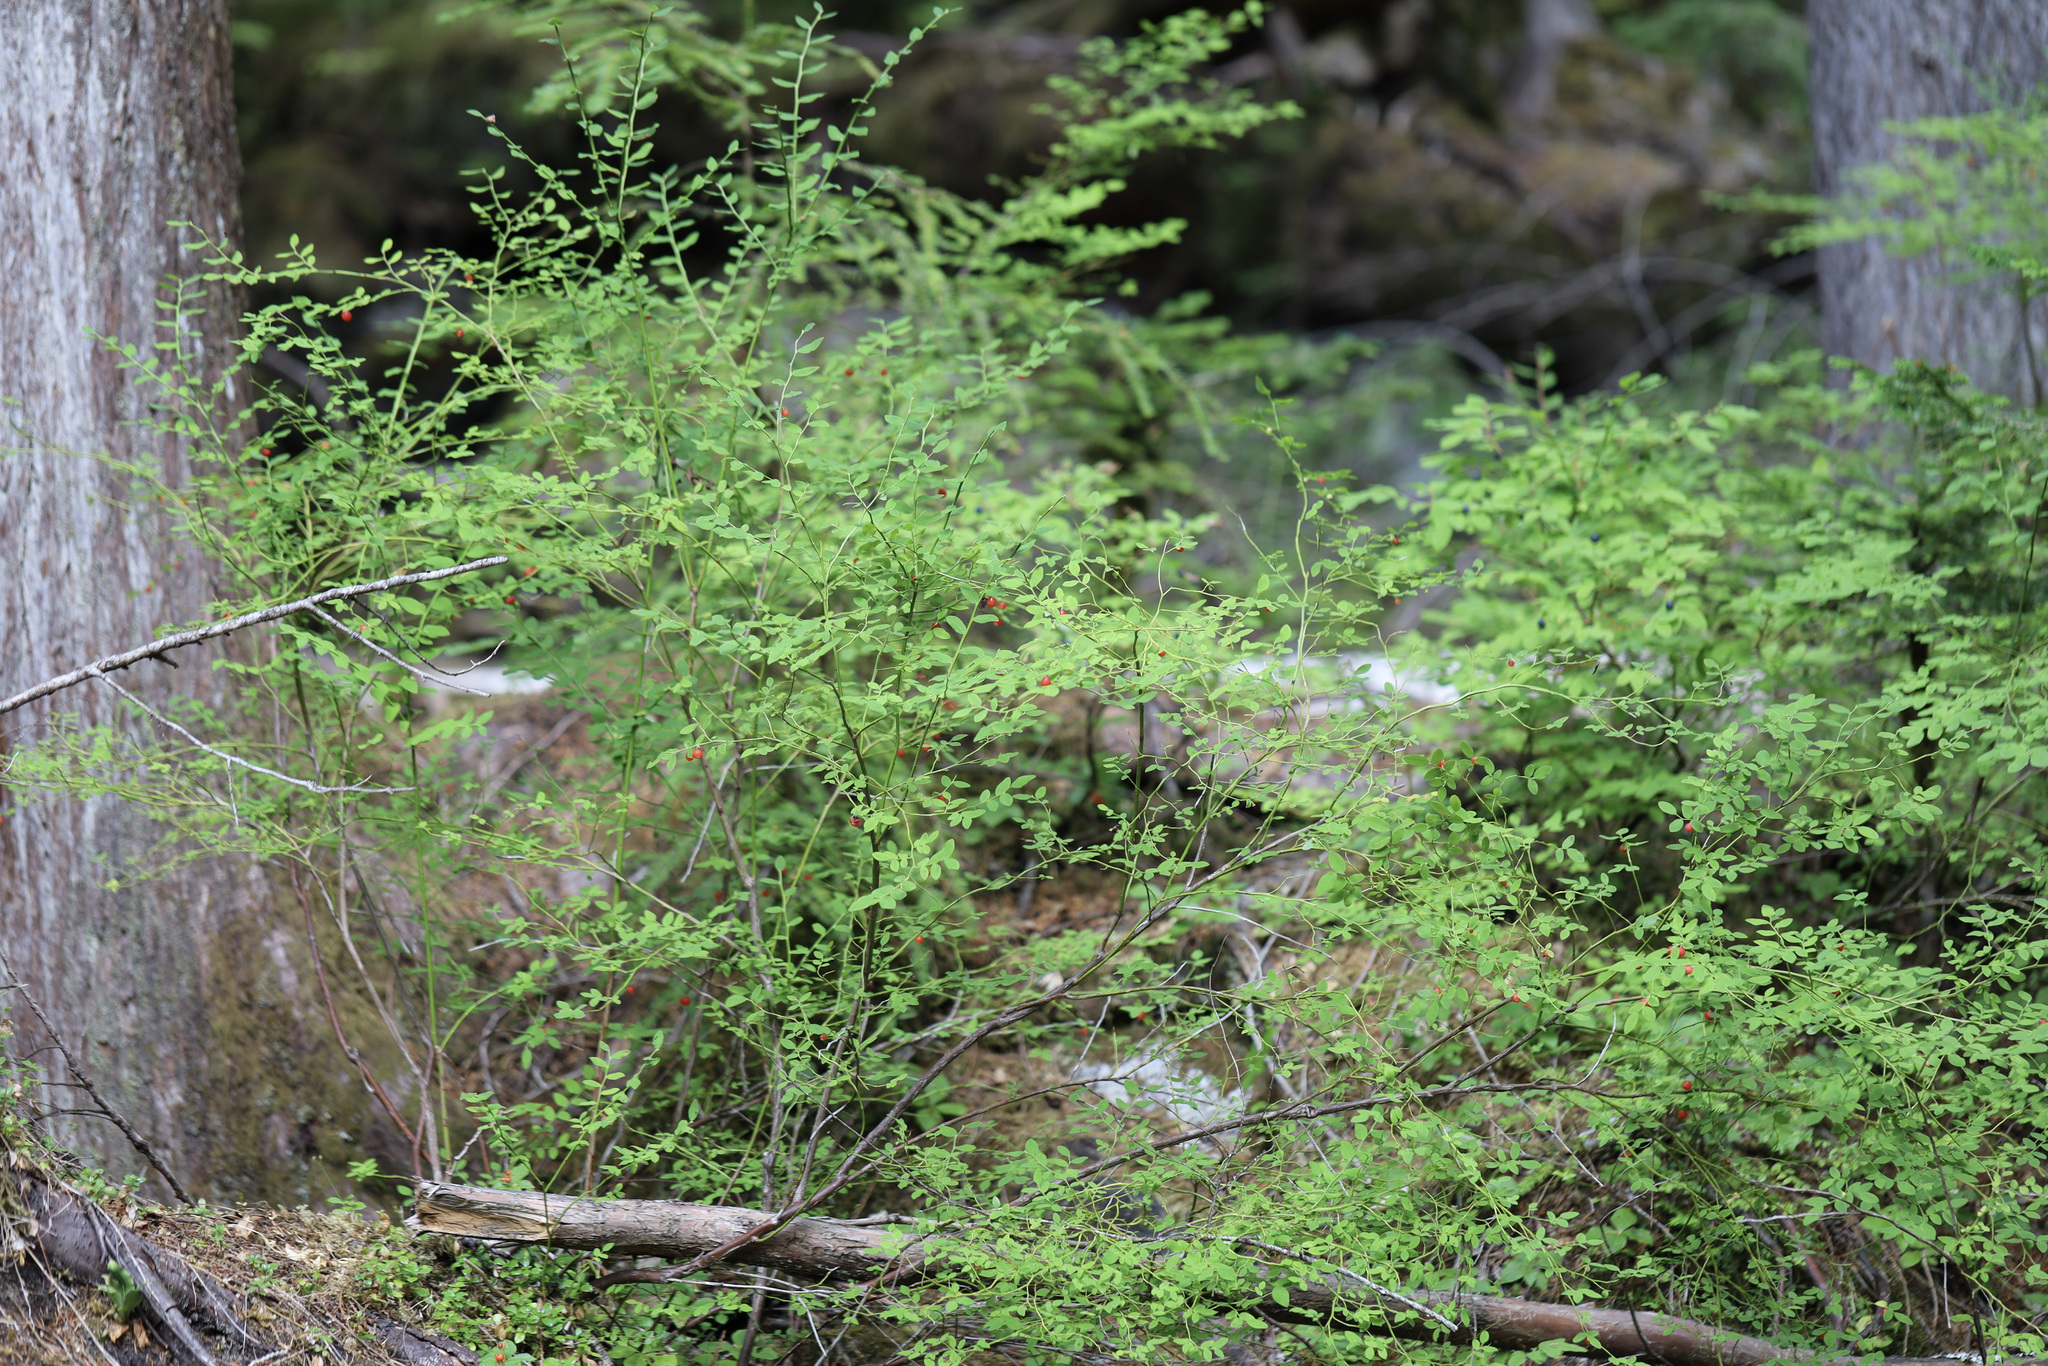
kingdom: Plantae
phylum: Tracheophyta
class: Magnoliopsida
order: Ericales
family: Ericaceae
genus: Vaccinium
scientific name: Vaccinium parvifolium
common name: Red-huckleberry
